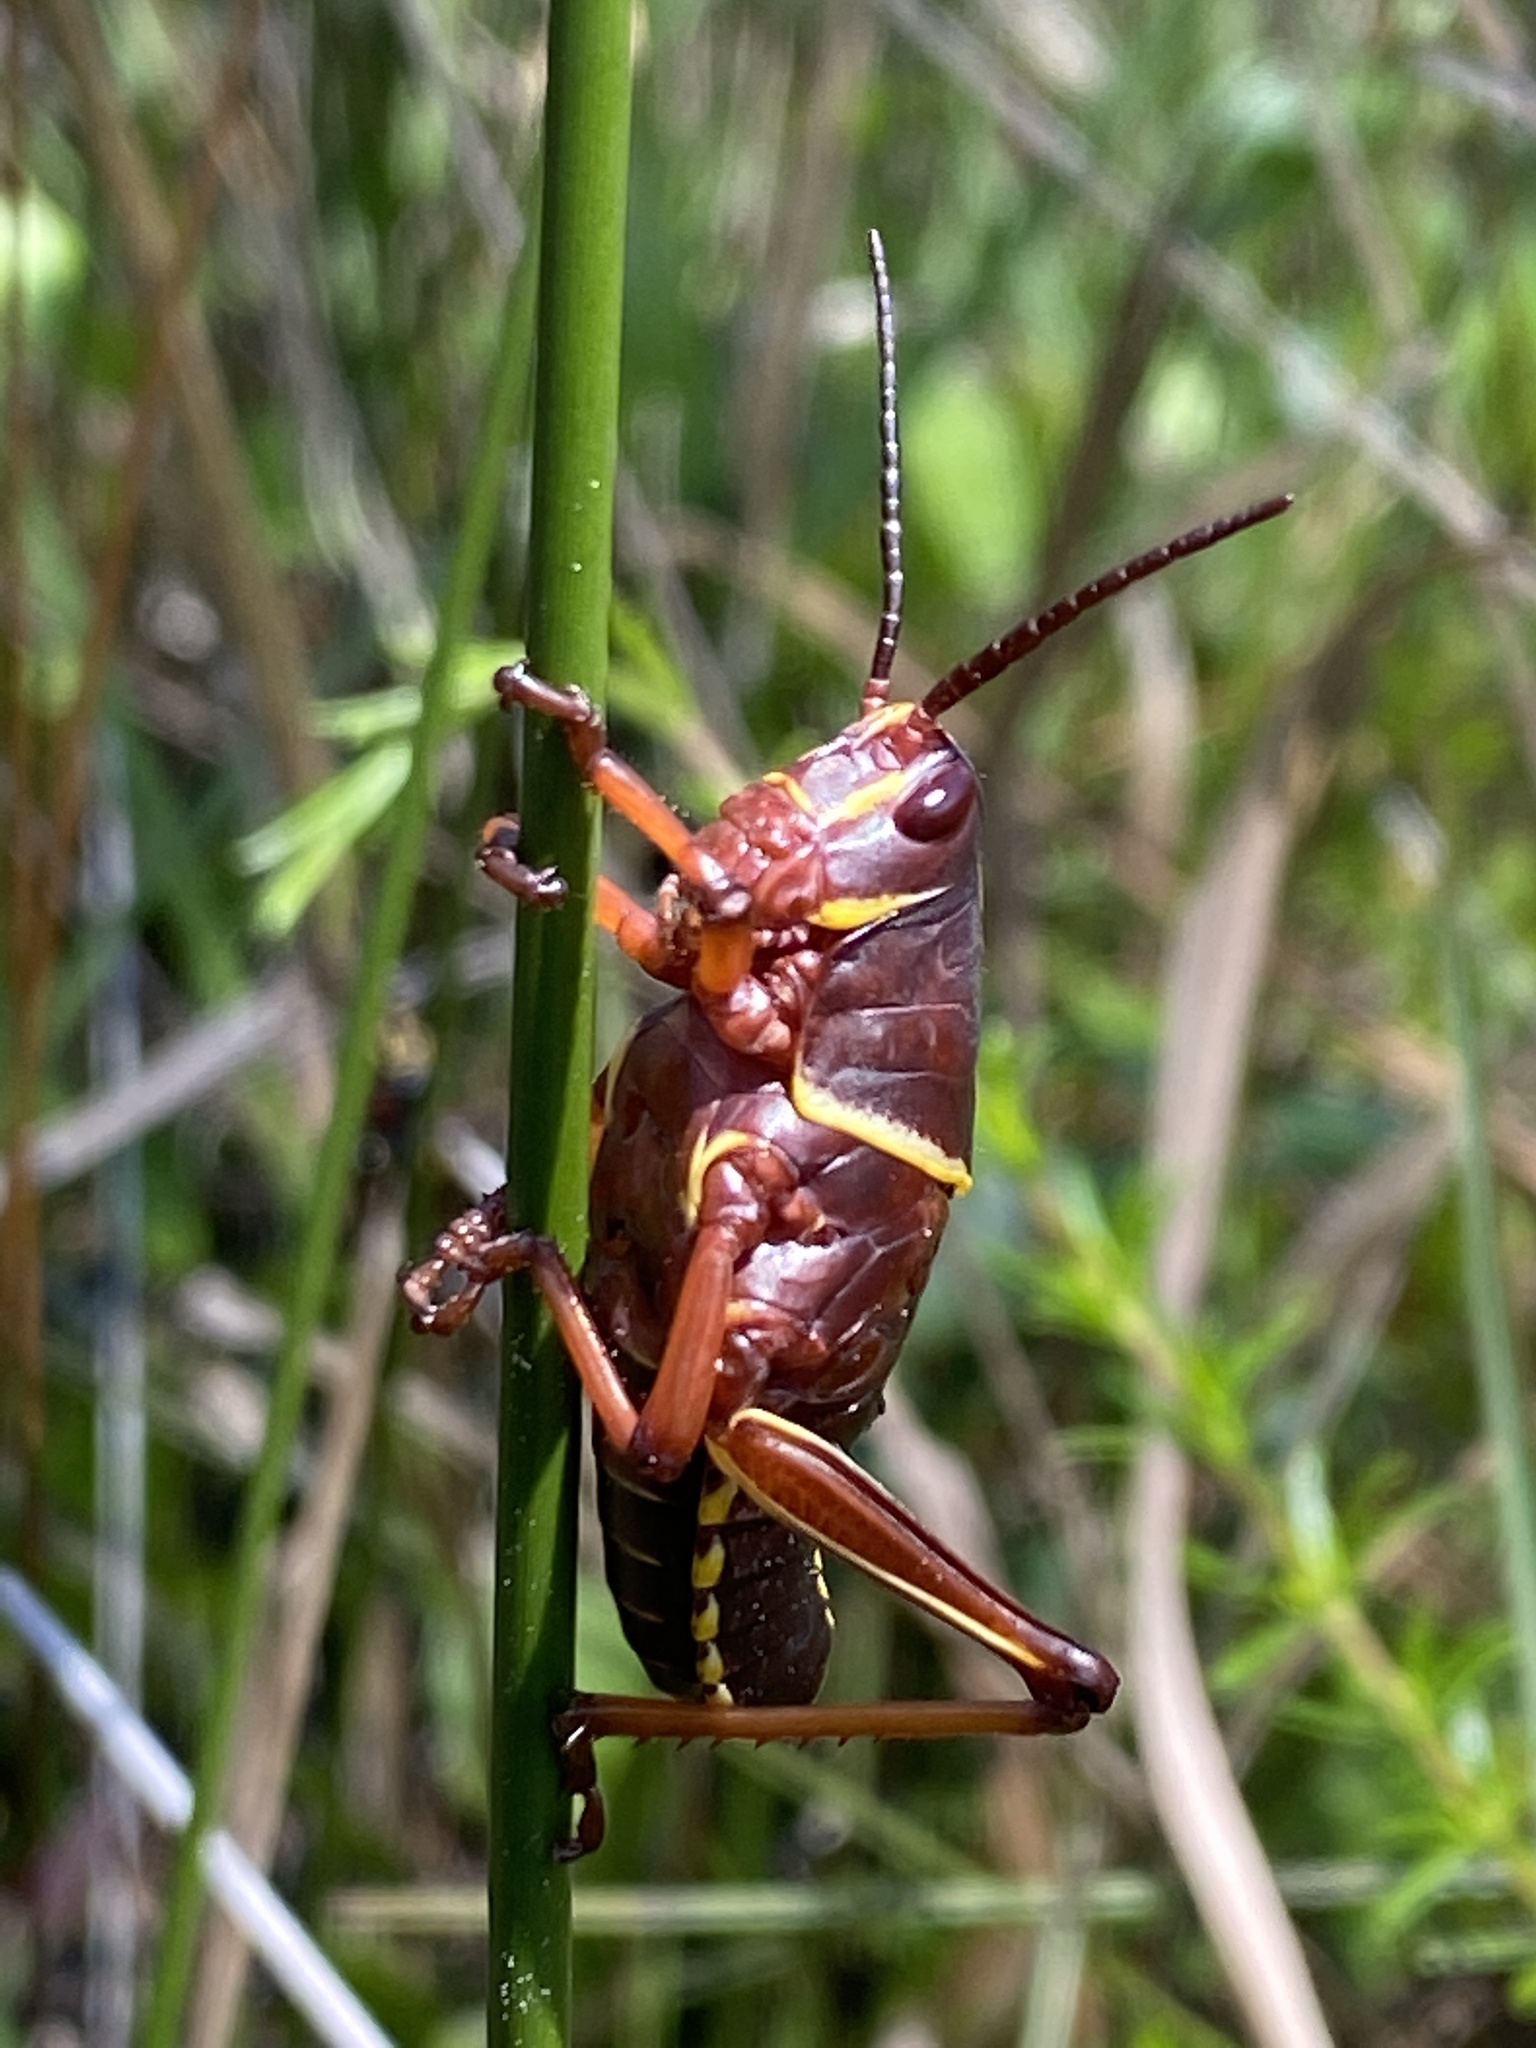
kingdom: Animalia
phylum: Arthropoda
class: Insecta
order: Orthoptera
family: Romaleidae
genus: Romalea
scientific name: Romalea microptera
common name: Eastern lubber grasshopper
